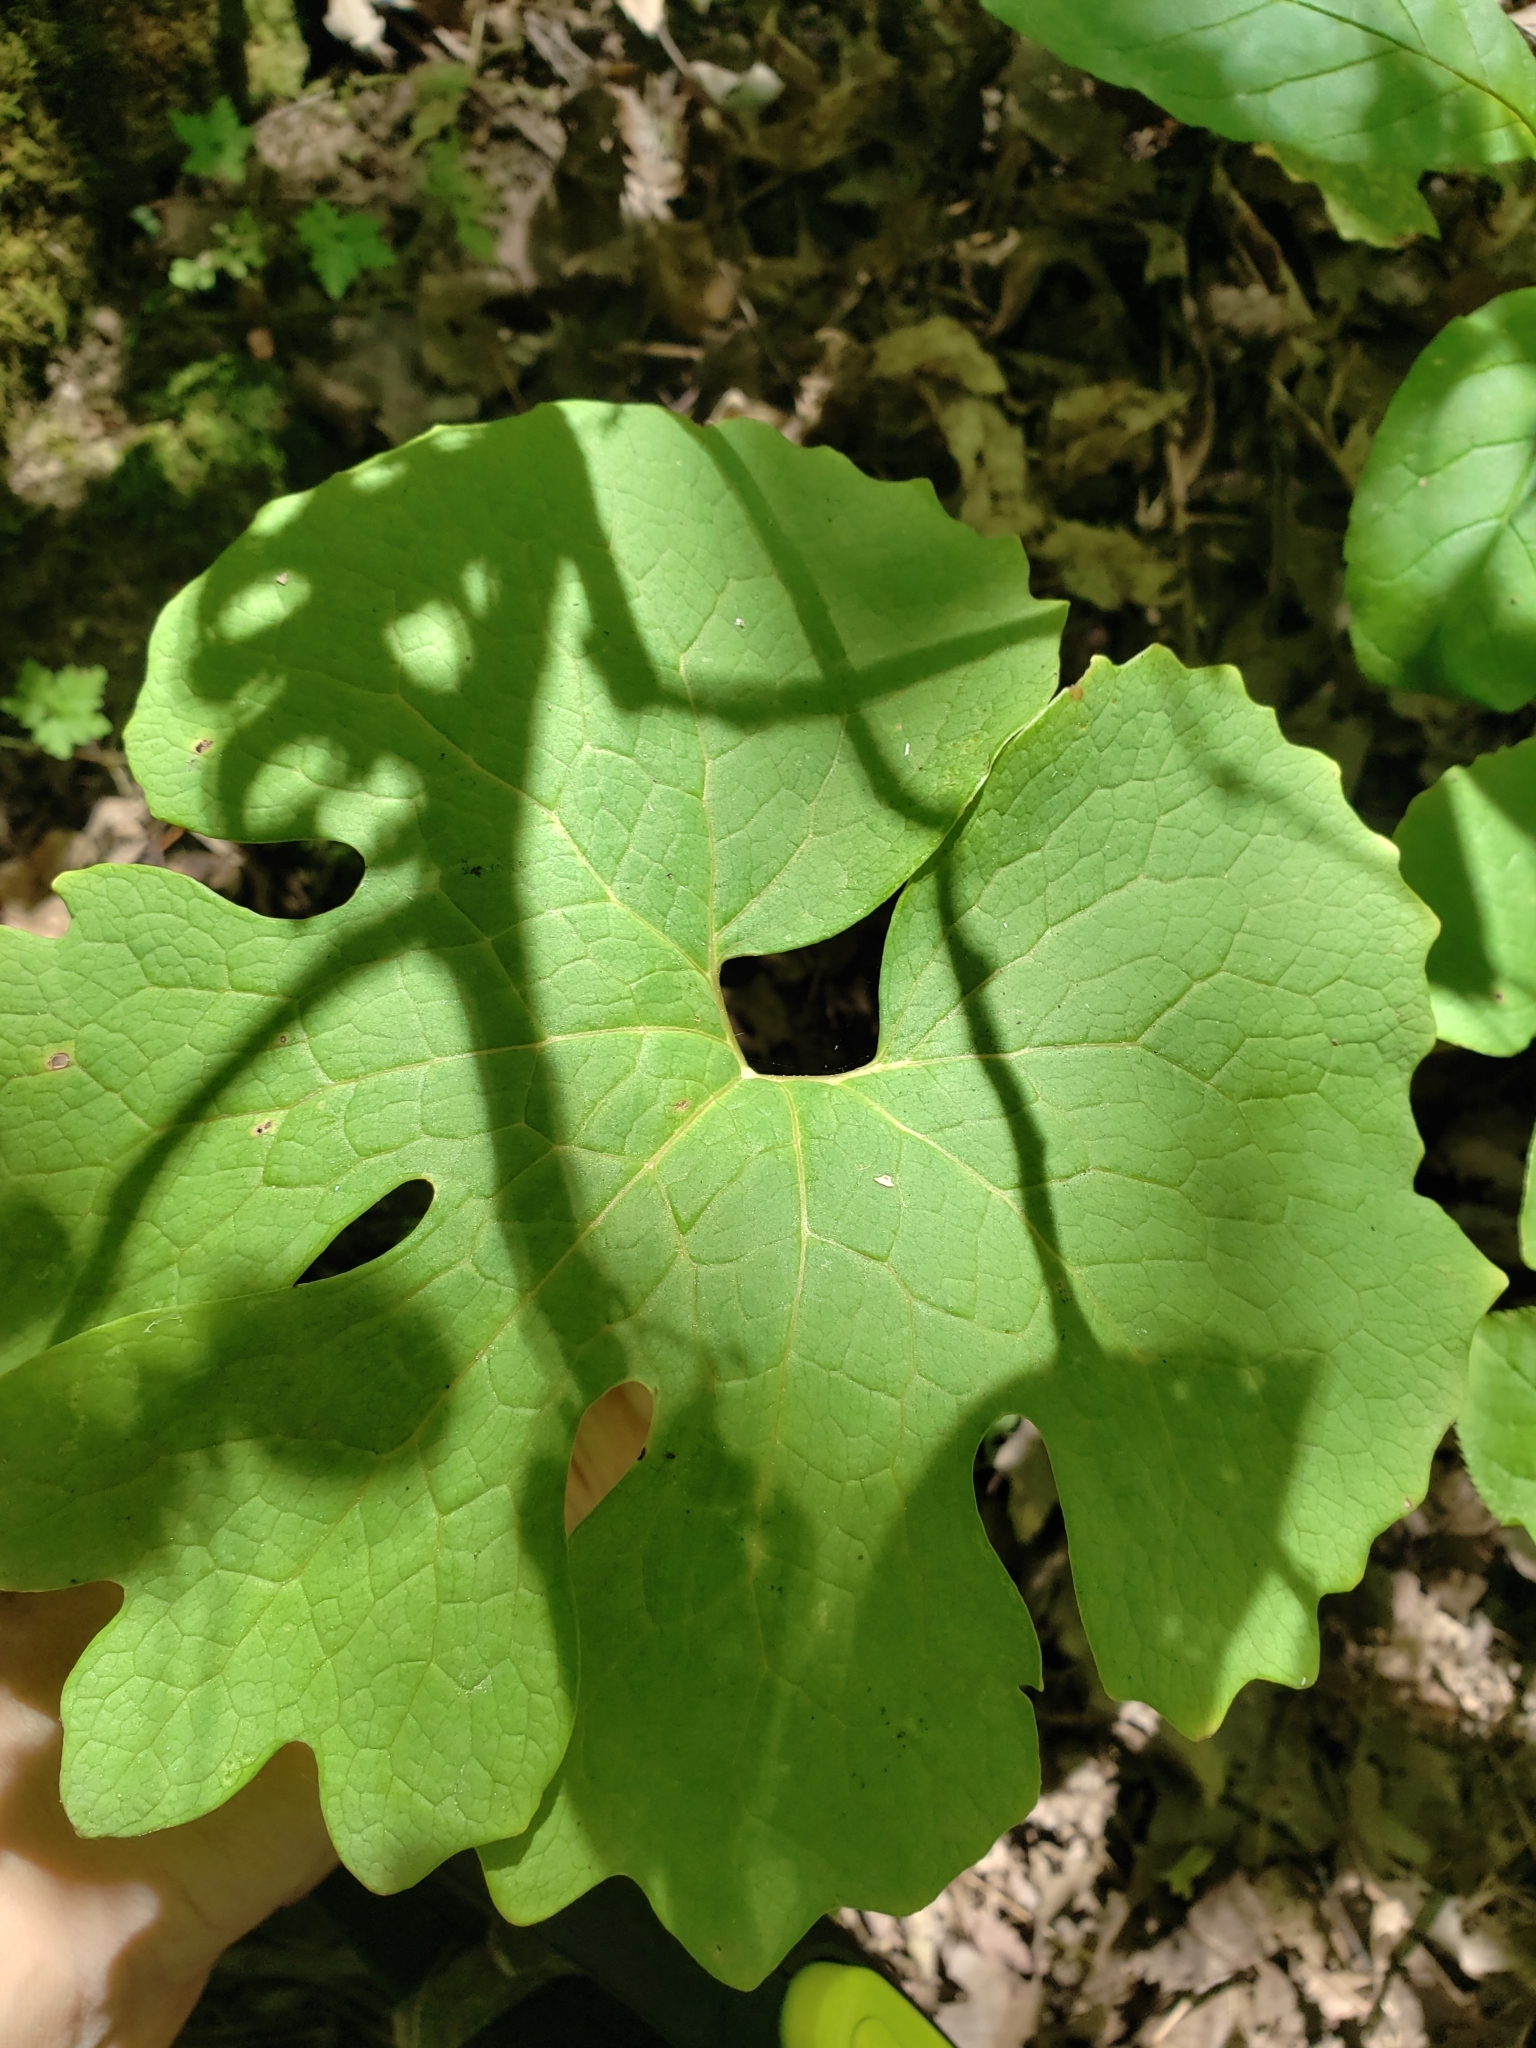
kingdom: Plantae
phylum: Tracheophyta
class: Magnoliopsida
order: Ranunculales
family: Papaveraceae
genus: Sanguinaria
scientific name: Sanguinaria canadensis
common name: Bloodroot
